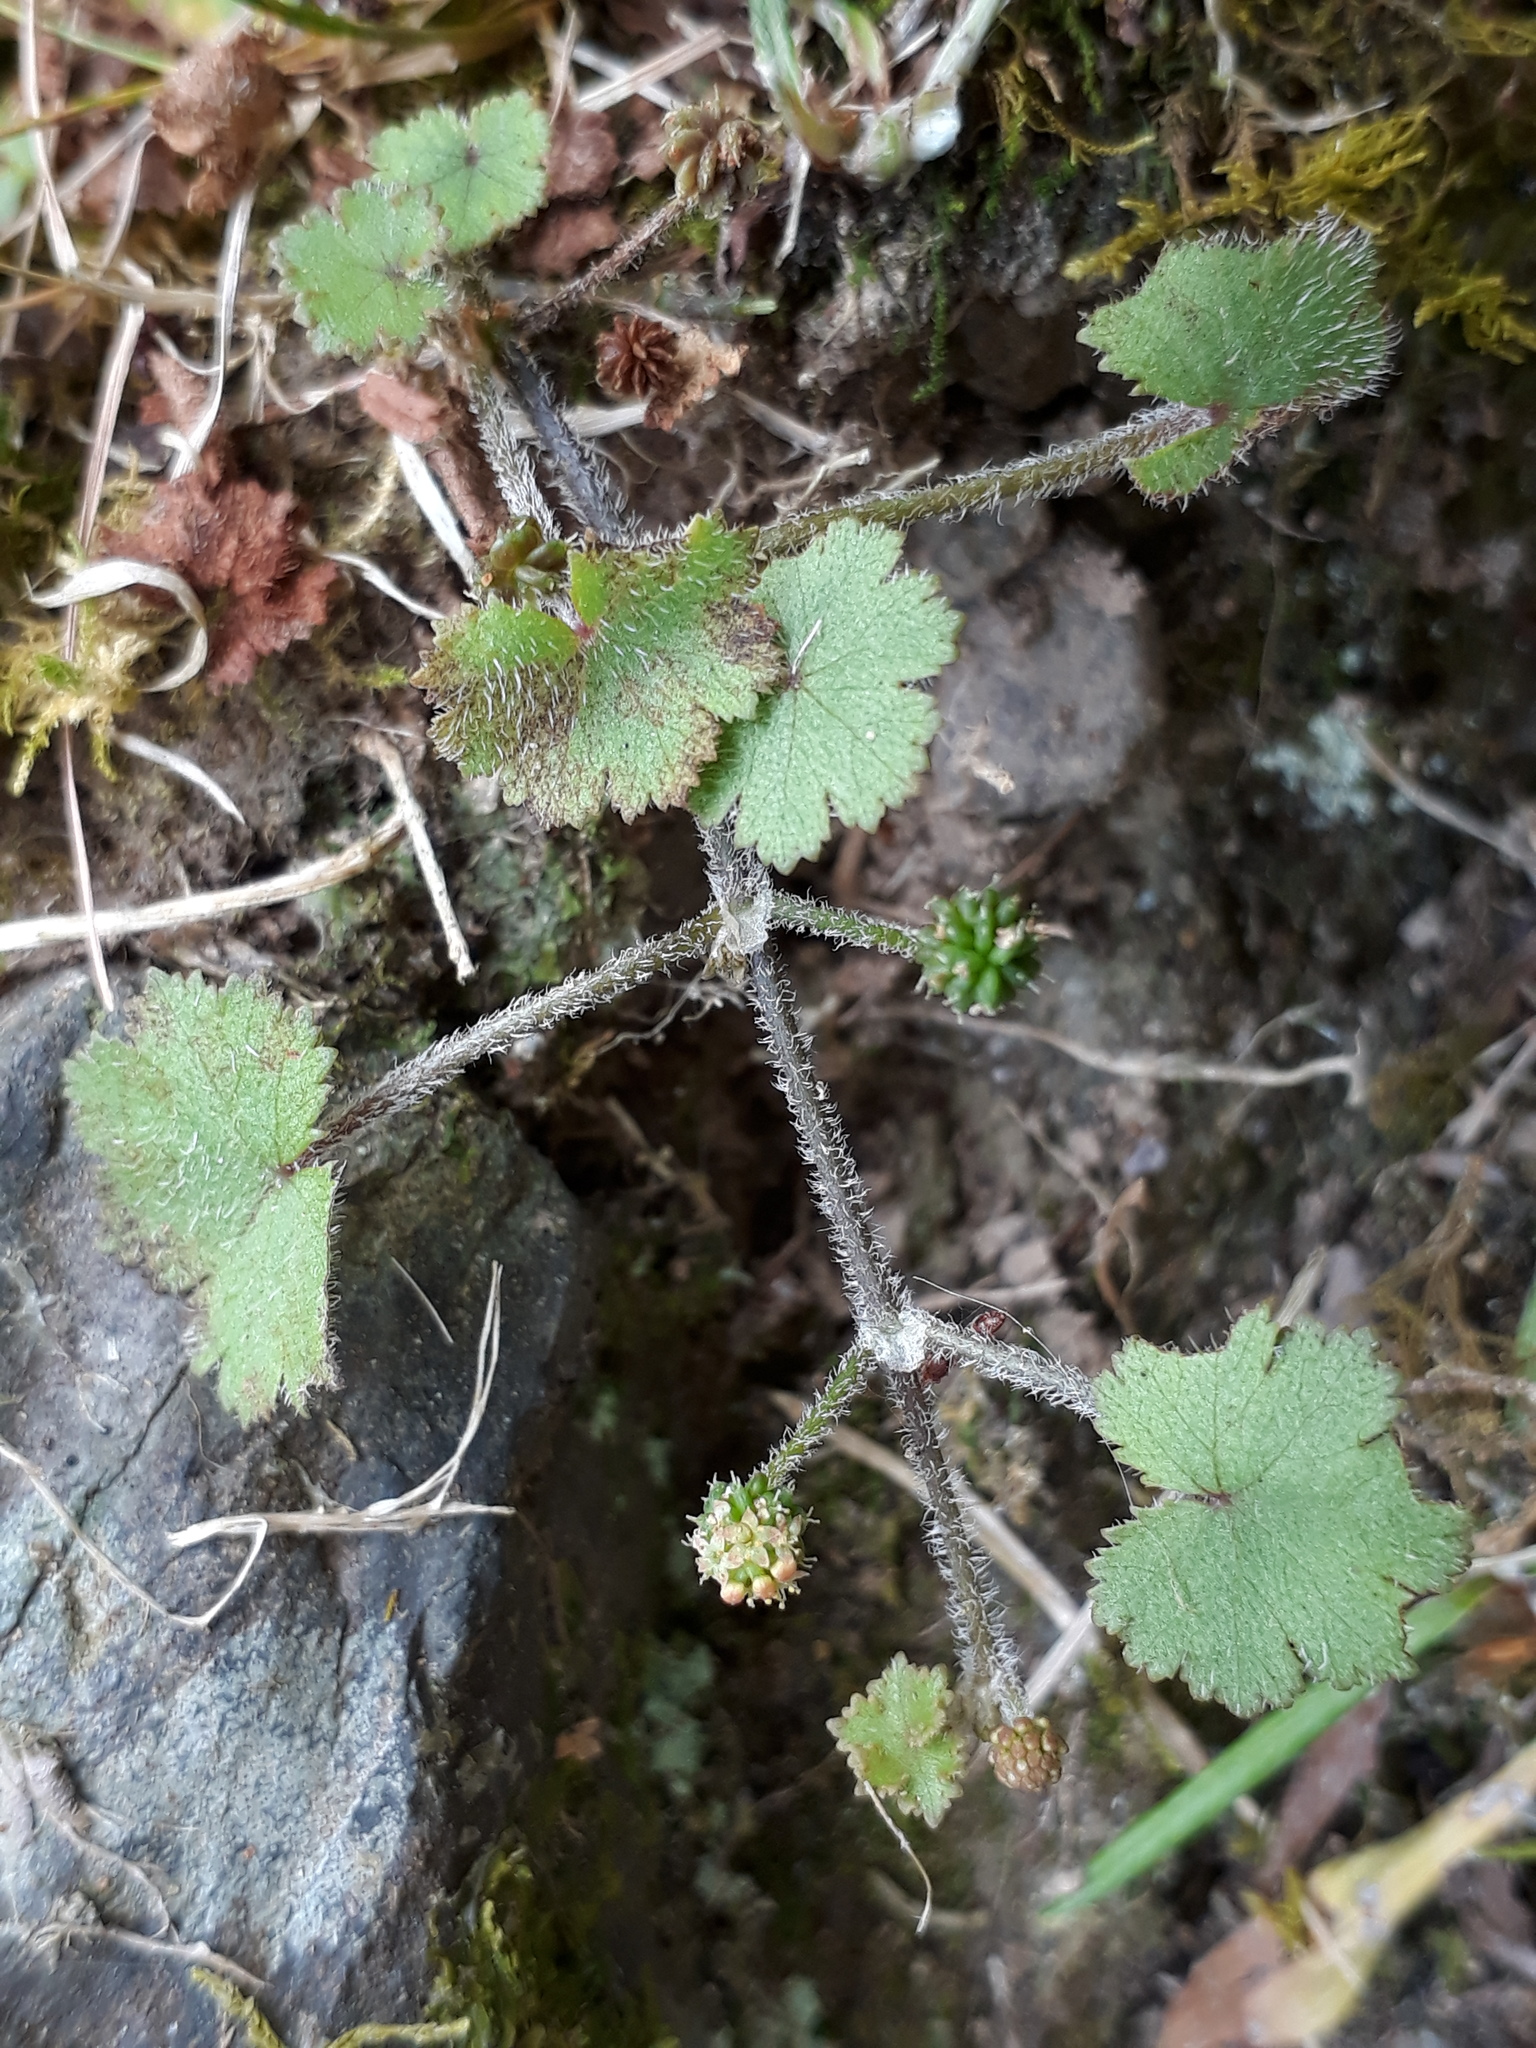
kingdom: Plantae
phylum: Tracheophyta
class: Magnoliopsida
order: Apiales
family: Araliaceae
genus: Hydrocotyle
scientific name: Hydrocotyle moschata
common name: Hairy pennywort
